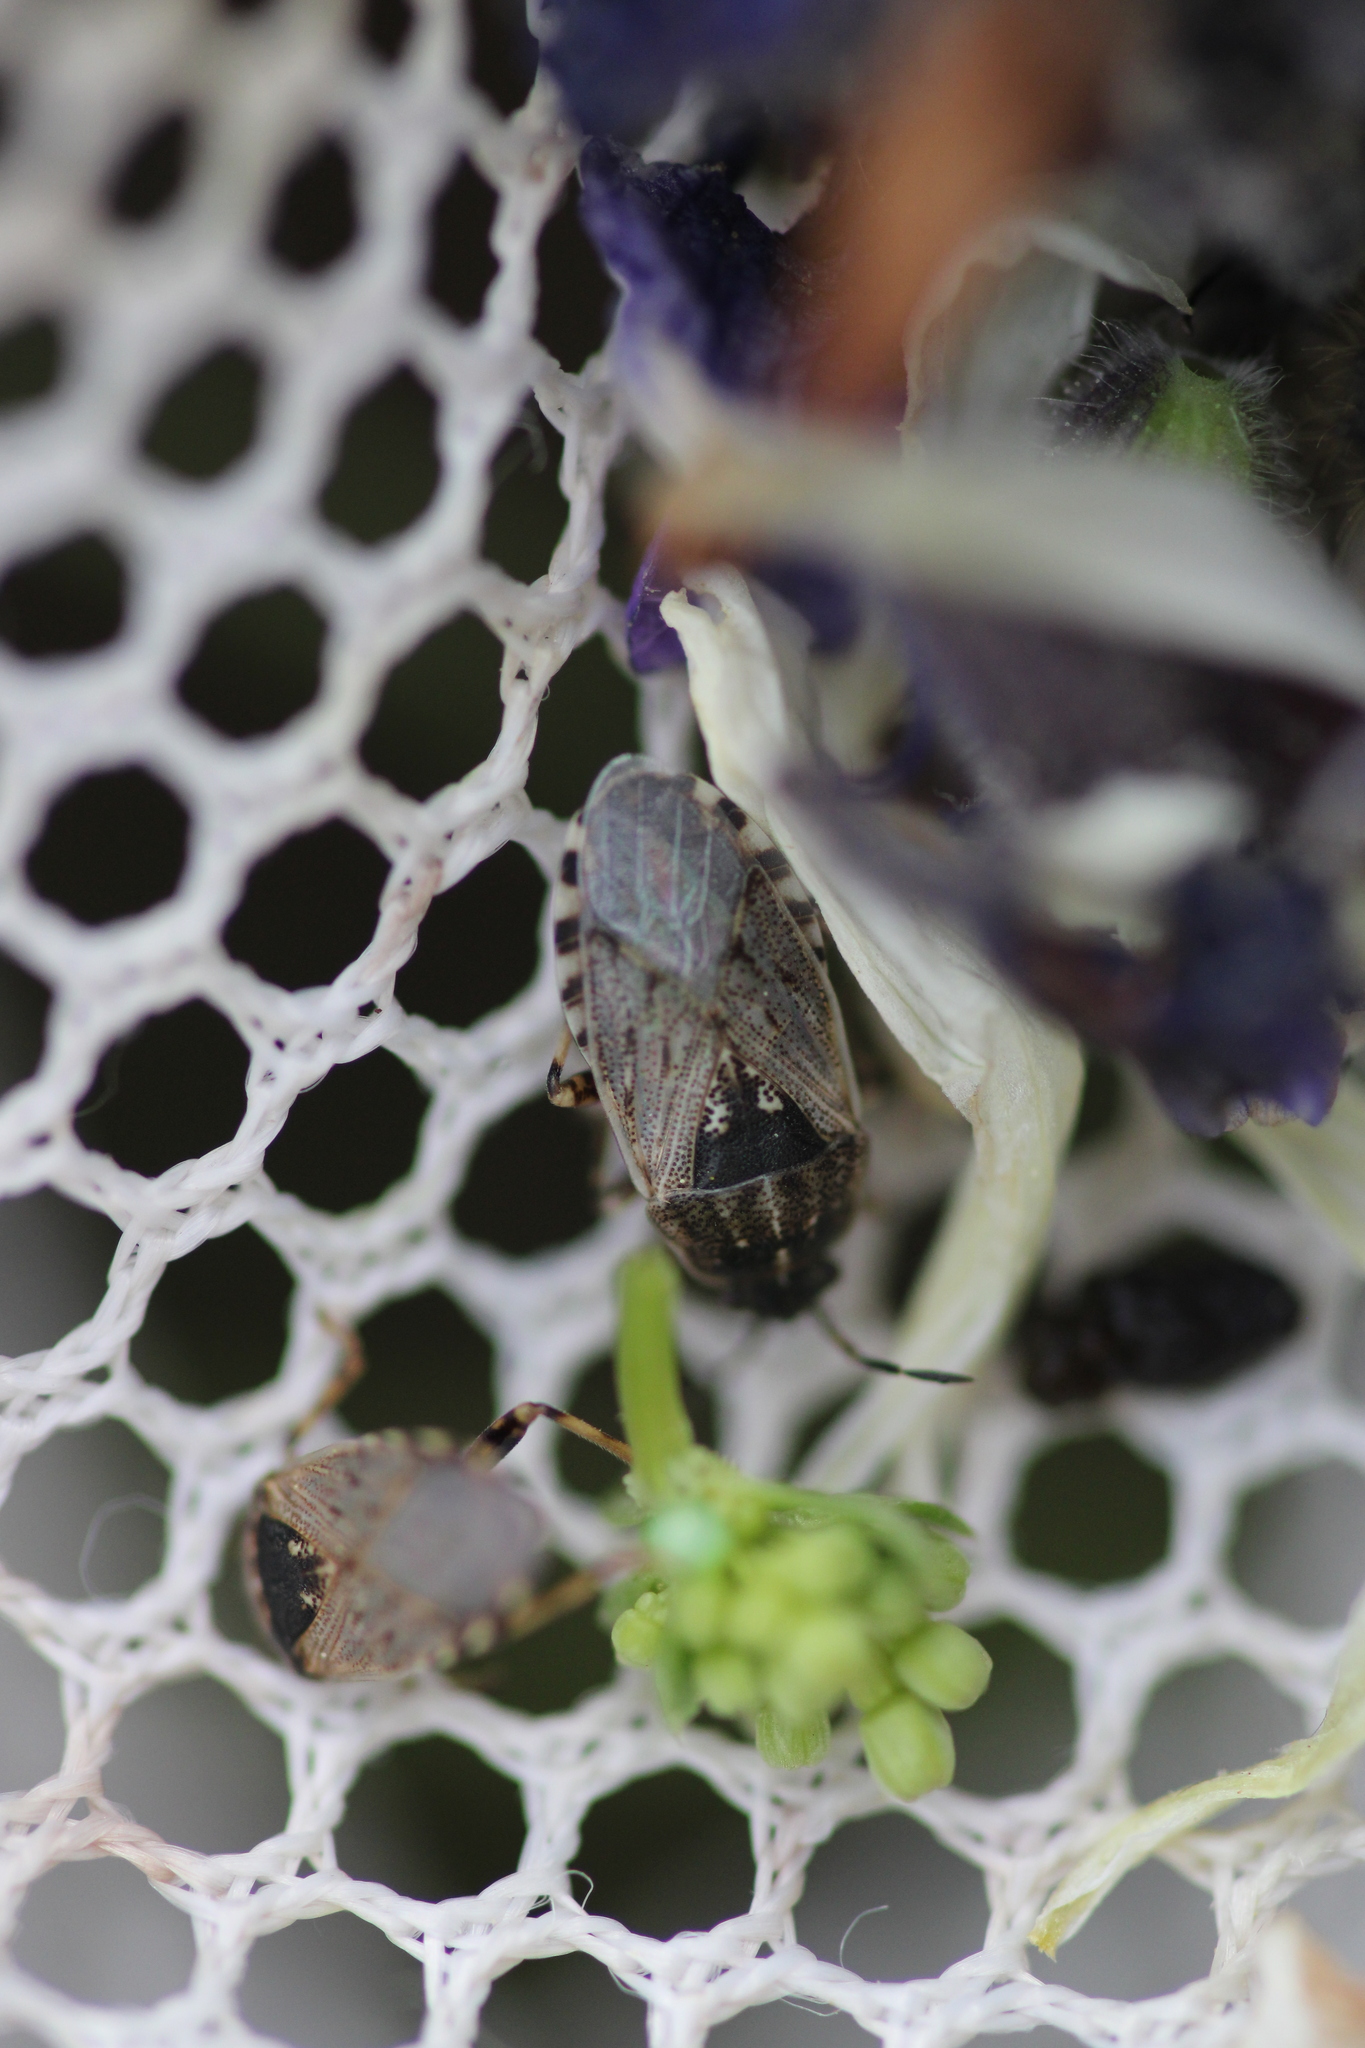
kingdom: Animalia
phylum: Arthropoda
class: Insecta
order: Hemiptera
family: Heterogastridae
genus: Platyplax
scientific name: Platyplax salviae
